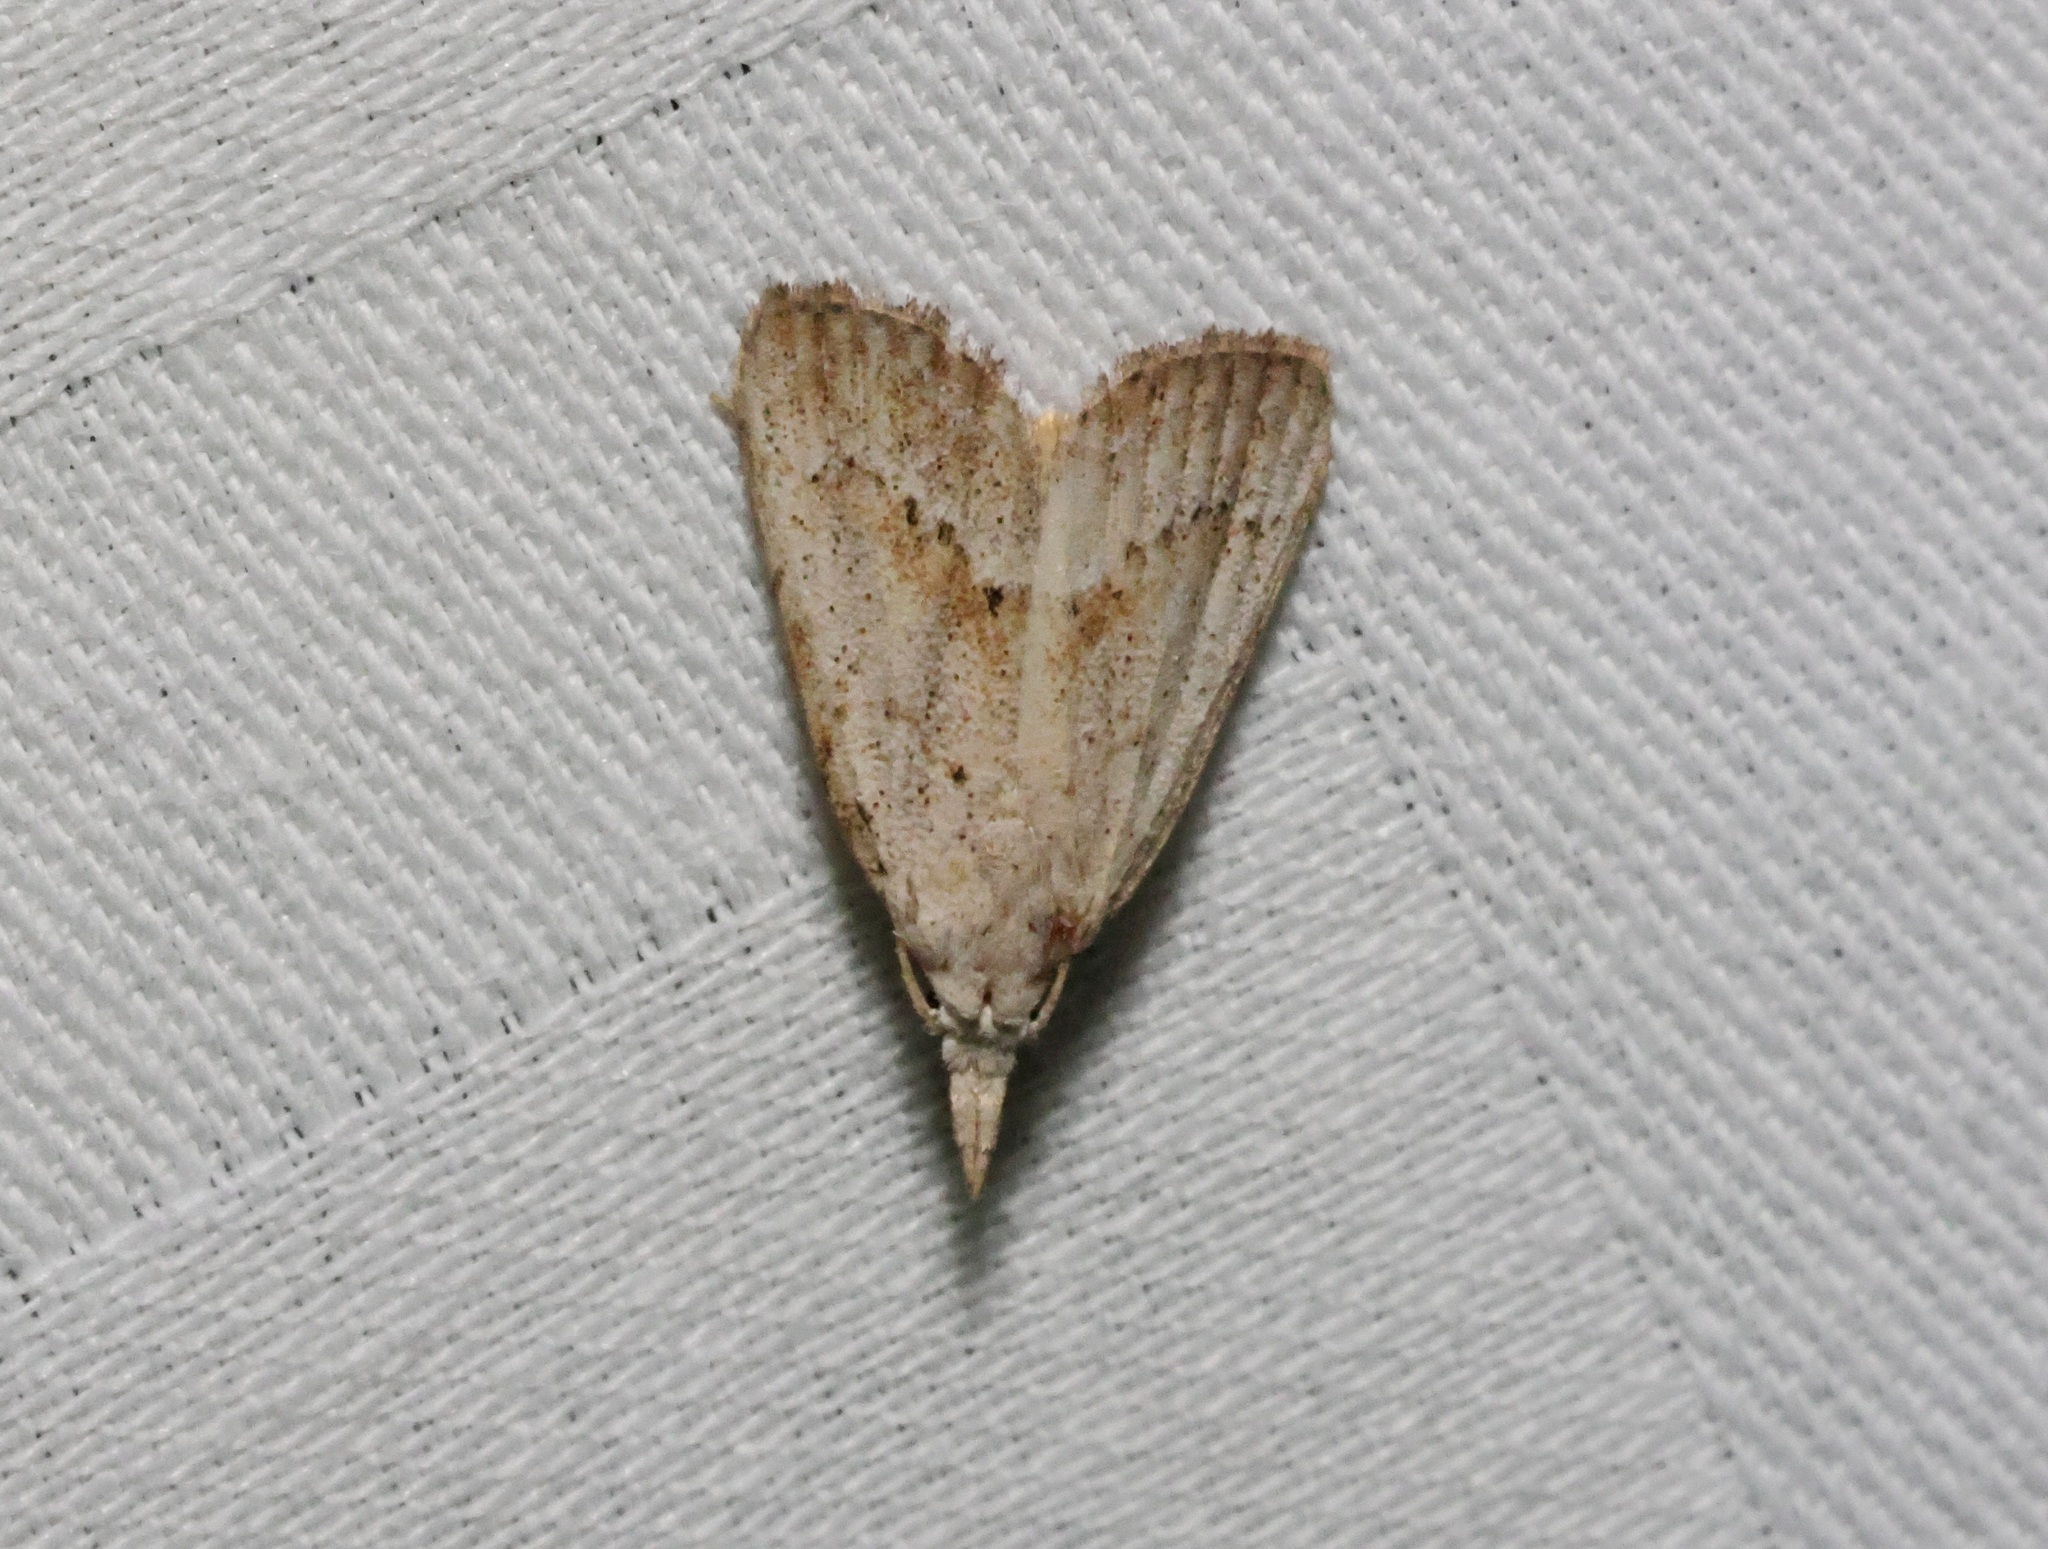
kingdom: Animalia
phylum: Arthropoda
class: Insecta
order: Lepidoptera
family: Nolidae
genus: Meganola
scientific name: Meganola brunellus
